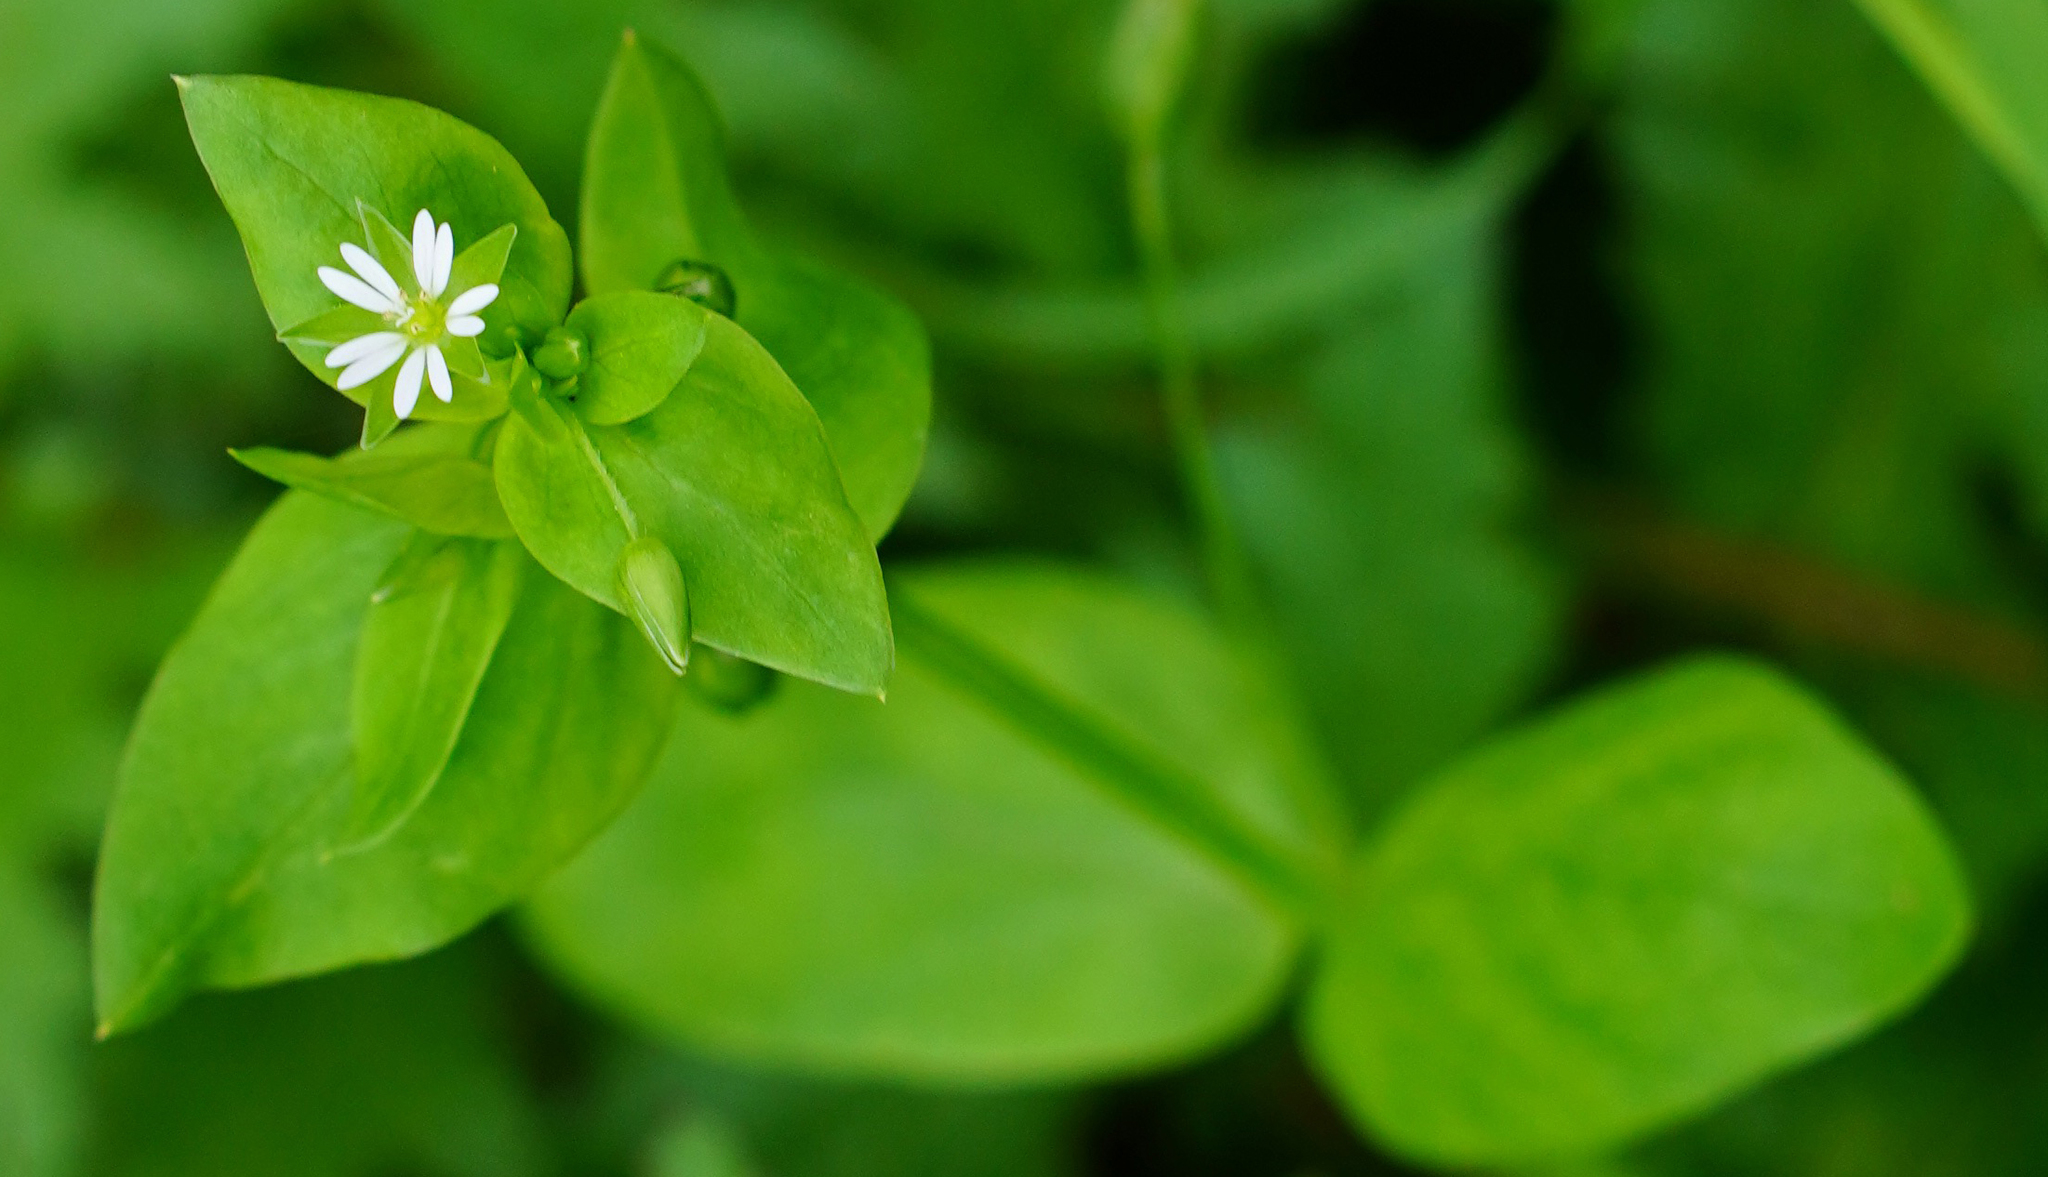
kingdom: Plantae
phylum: Tracheophyta
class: Magnoliopsida
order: Caryophyllales
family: Caryophyllaceae
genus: Stellaria
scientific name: Stellaria media
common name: Common chickweed
